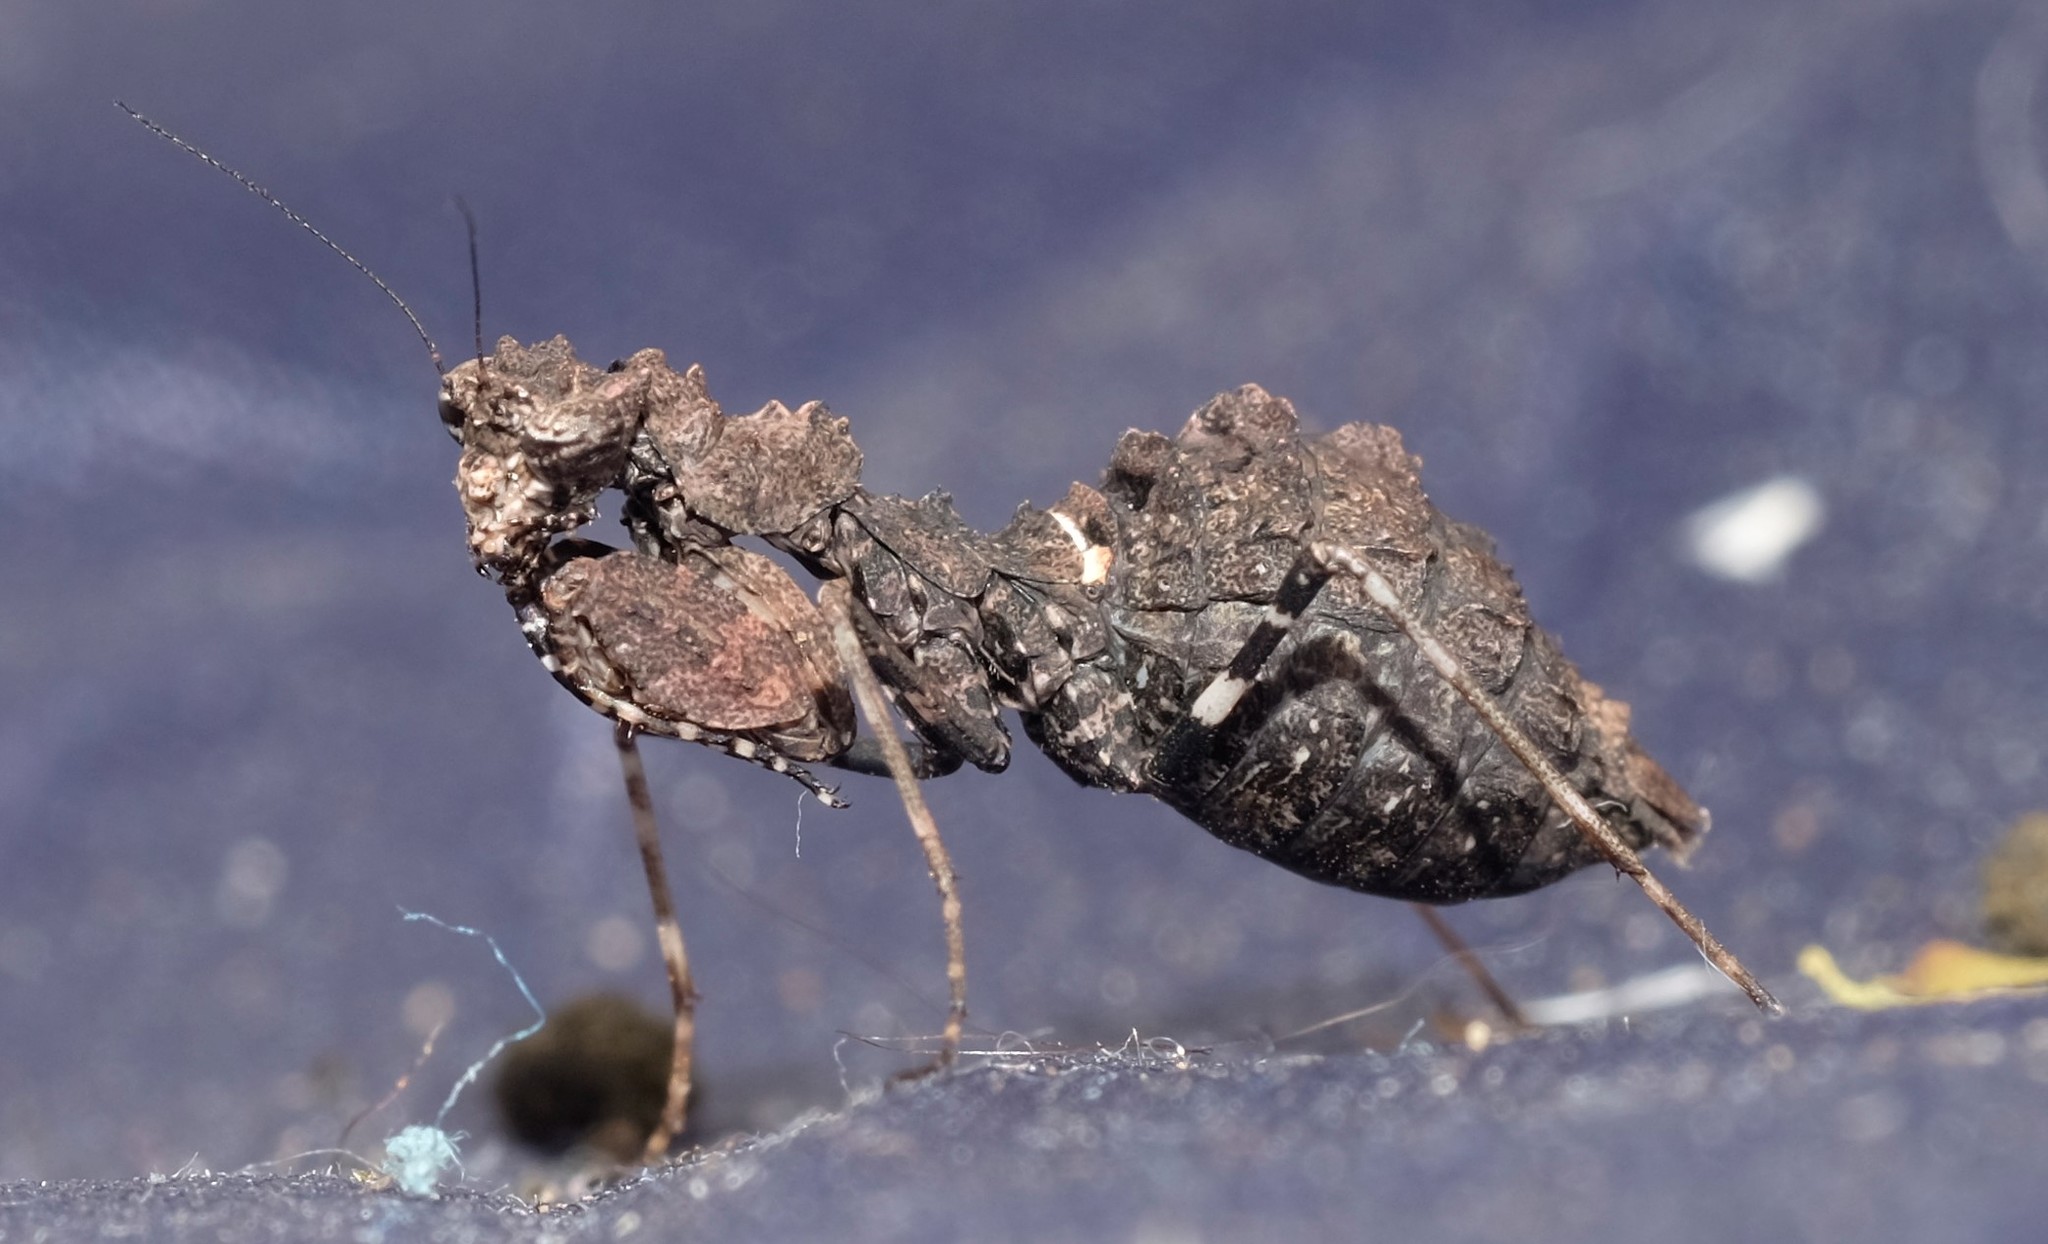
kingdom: Animalia
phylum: Arthropoda
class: Insecta
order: Mantodea
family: Nanomantidae
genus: Paraoxypilus
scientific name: Paraoxypilus tasmaniensis
